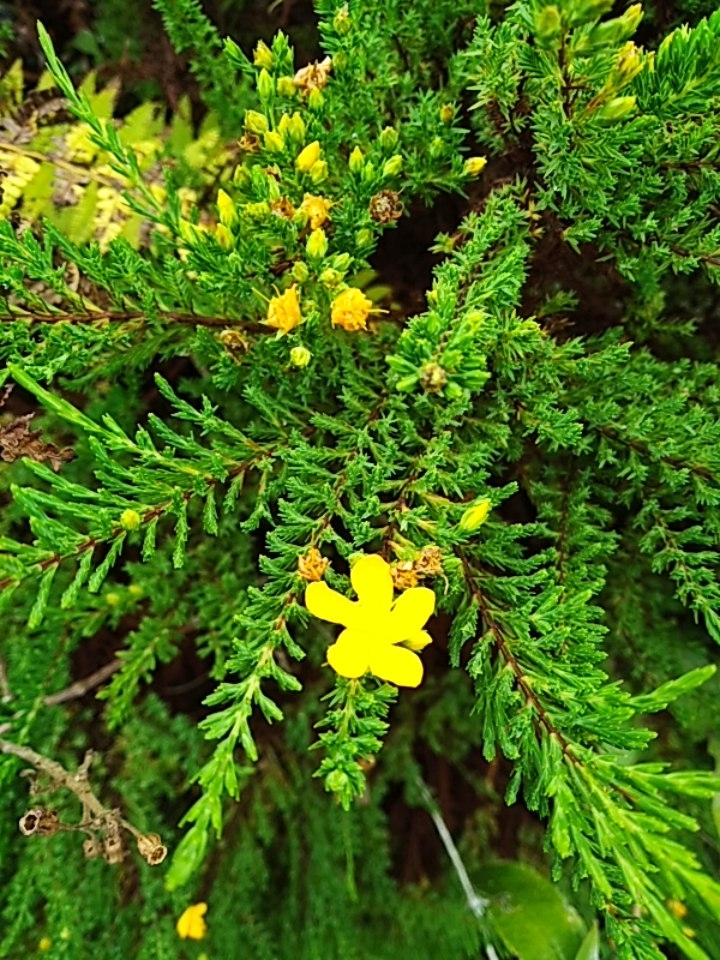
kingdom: Plantae
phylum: Tracheophyta
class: Magnoliopsida
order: Malpighiales
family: Hypericaceae
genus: Hypericum
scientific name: Hypericum laricifolium
